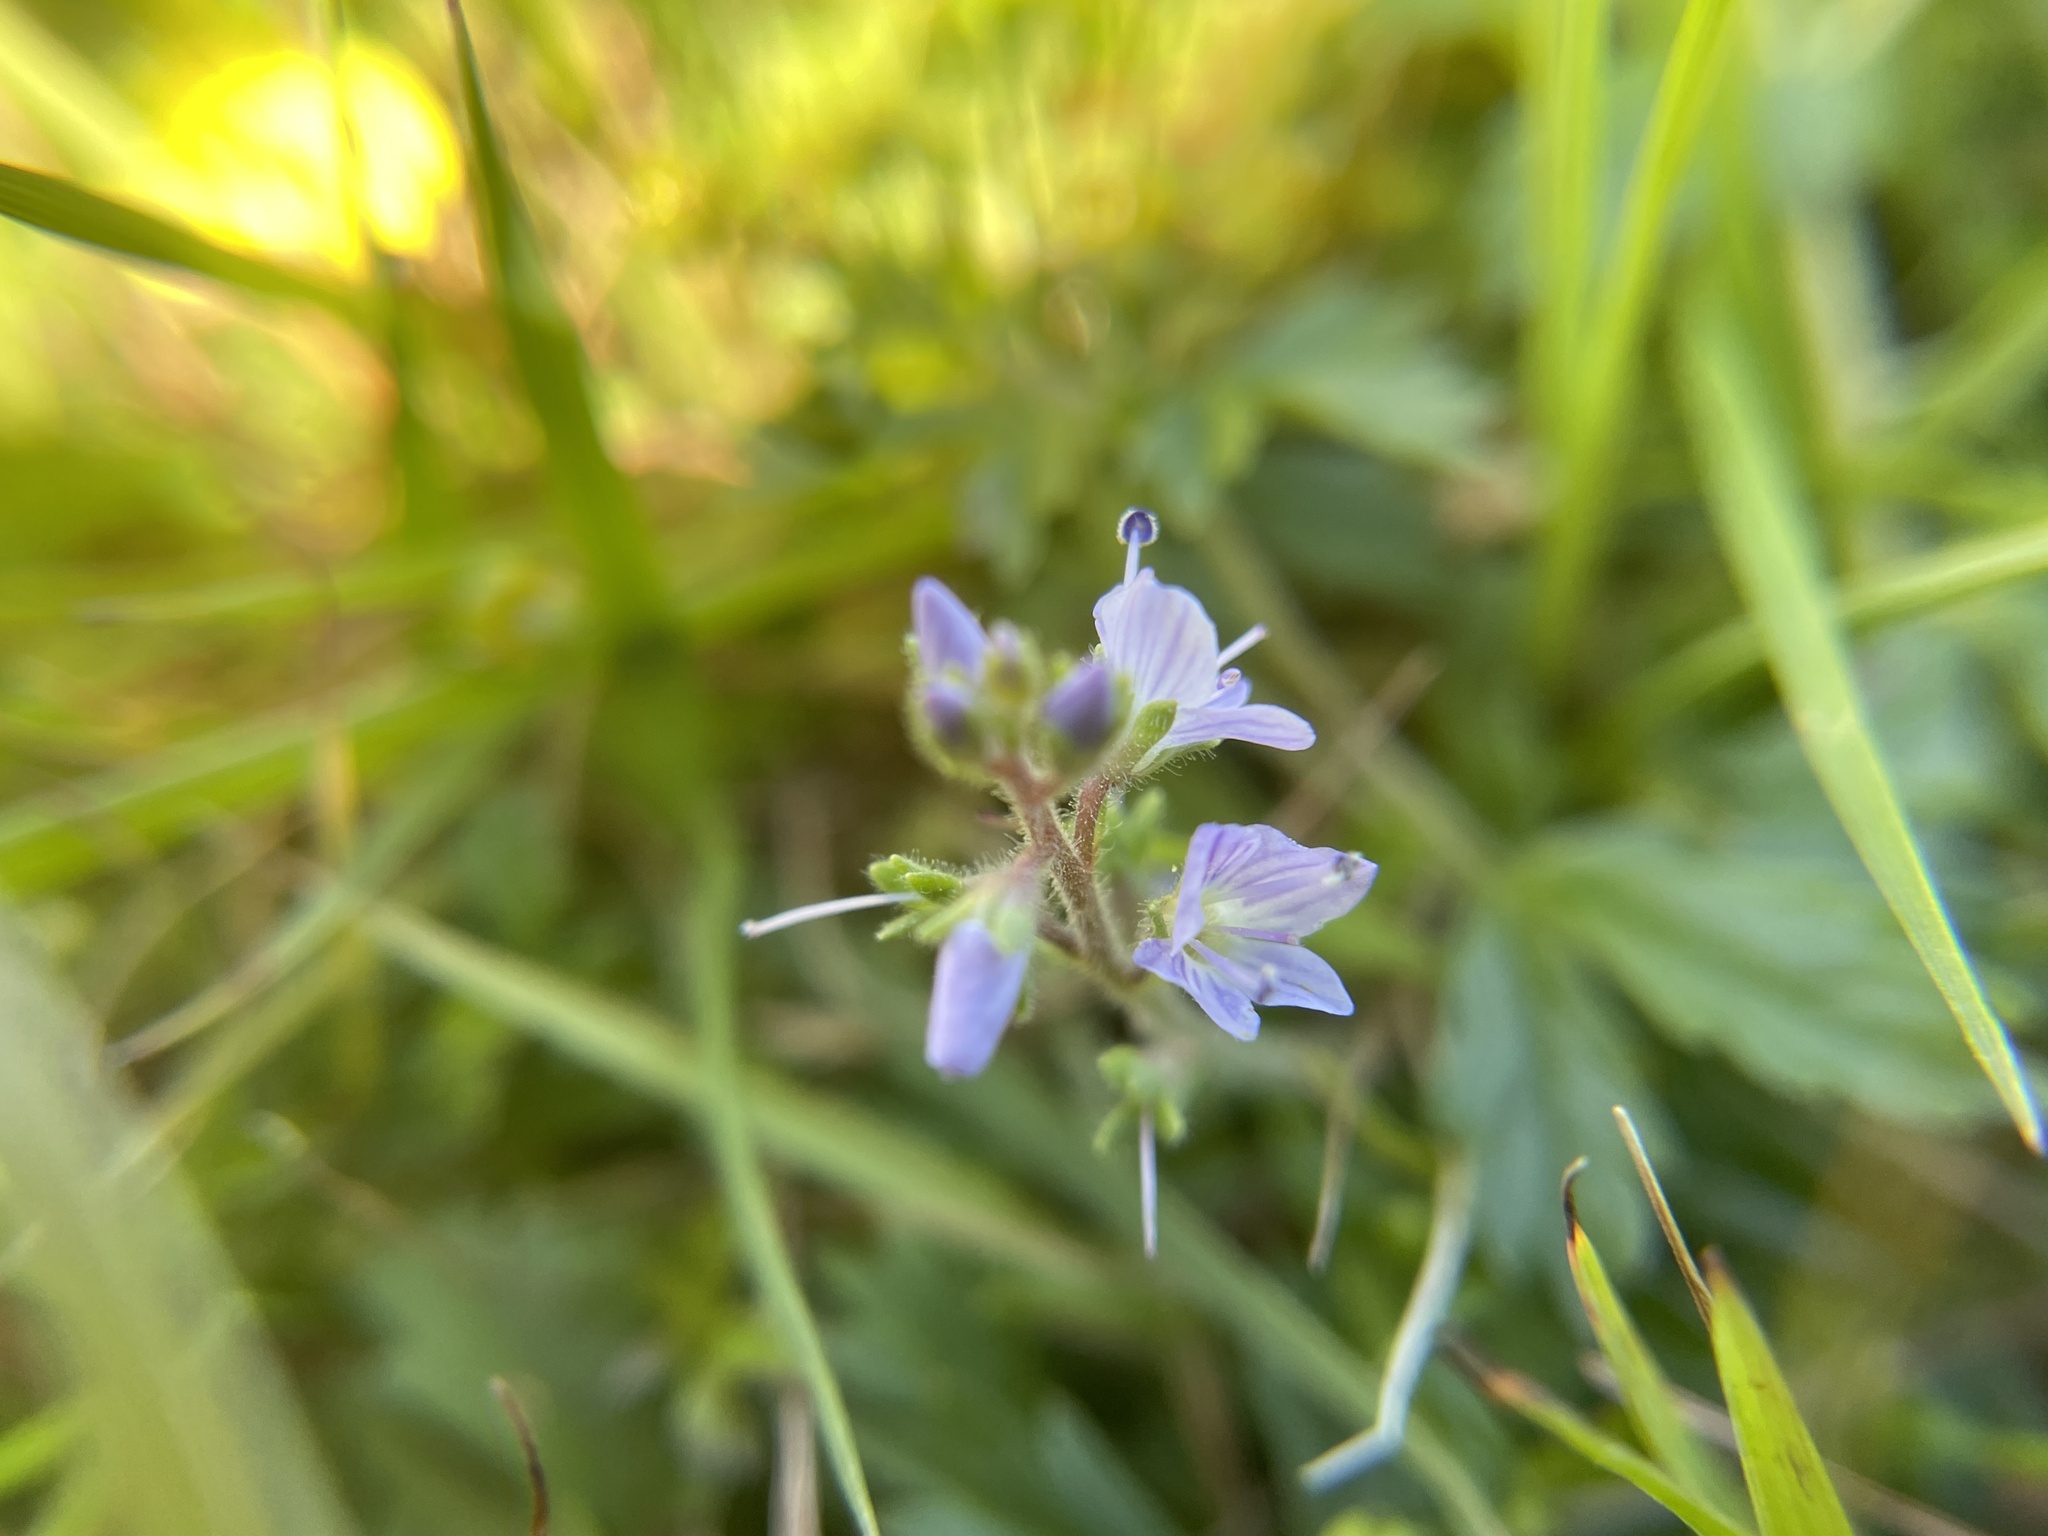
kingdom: Plantae
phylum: Tracheophyta
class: Magnoliopsida
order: Lamiales
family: Plantaginaceae
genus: Veronica
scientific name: Veronica officinalis
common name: Common speedwell
